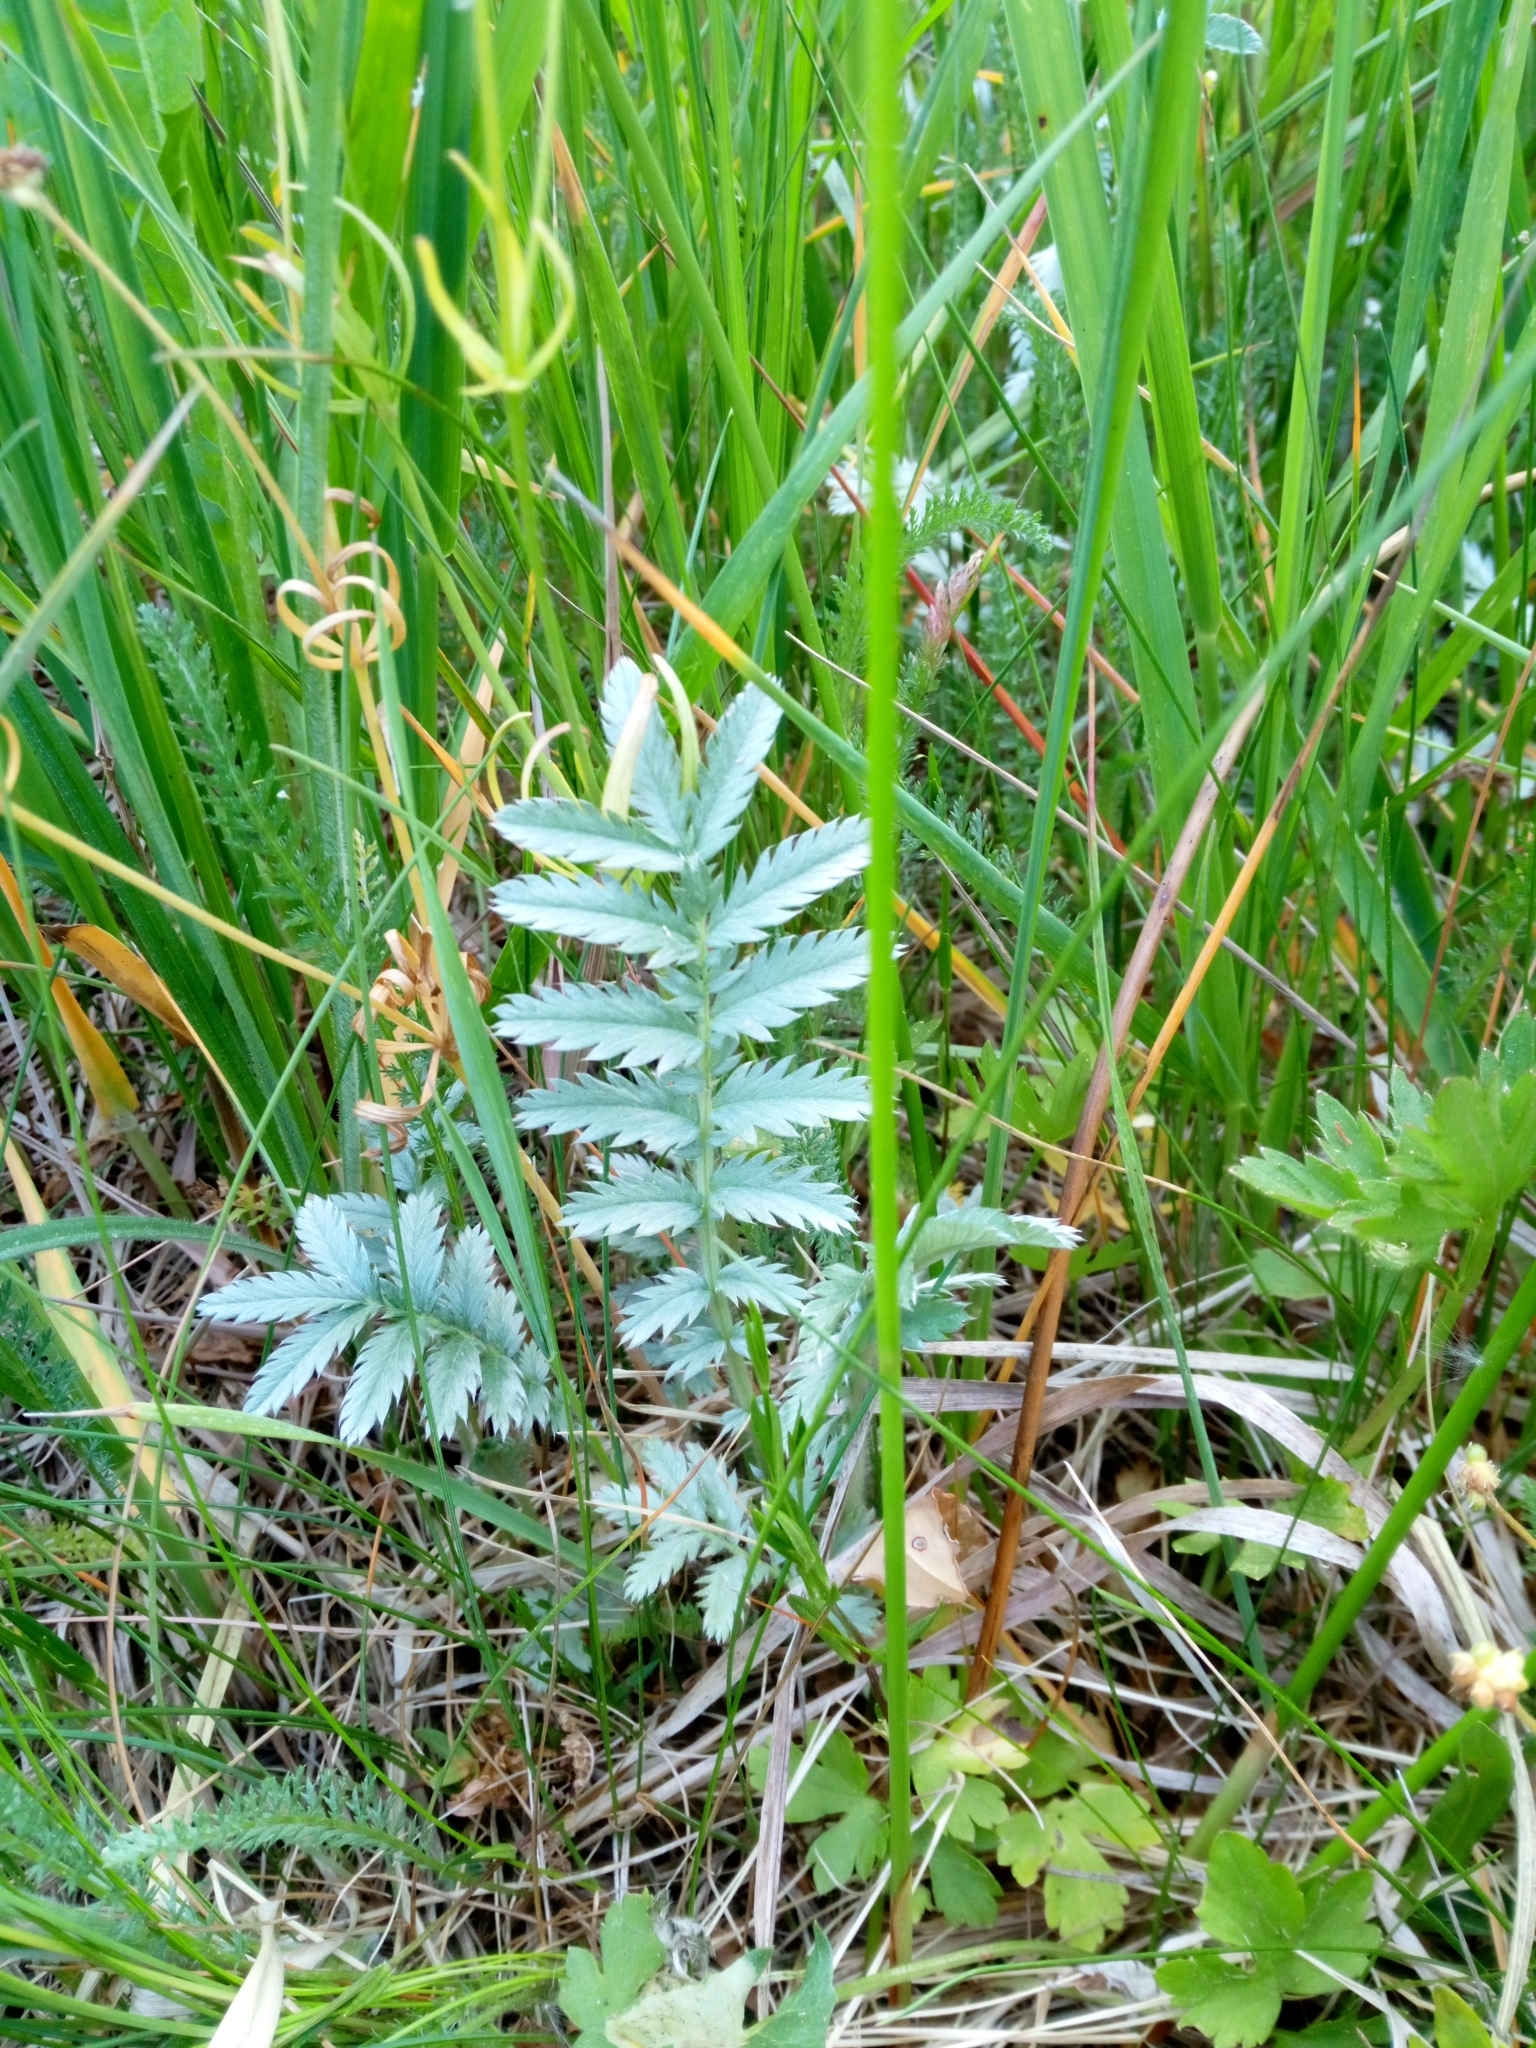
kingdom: Plantae
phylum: Tracheophyta
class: Magnoliopsida
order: Rosales
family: Rosaceae
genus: Argentina
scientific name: Argentina anserina
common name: Common silverweed
